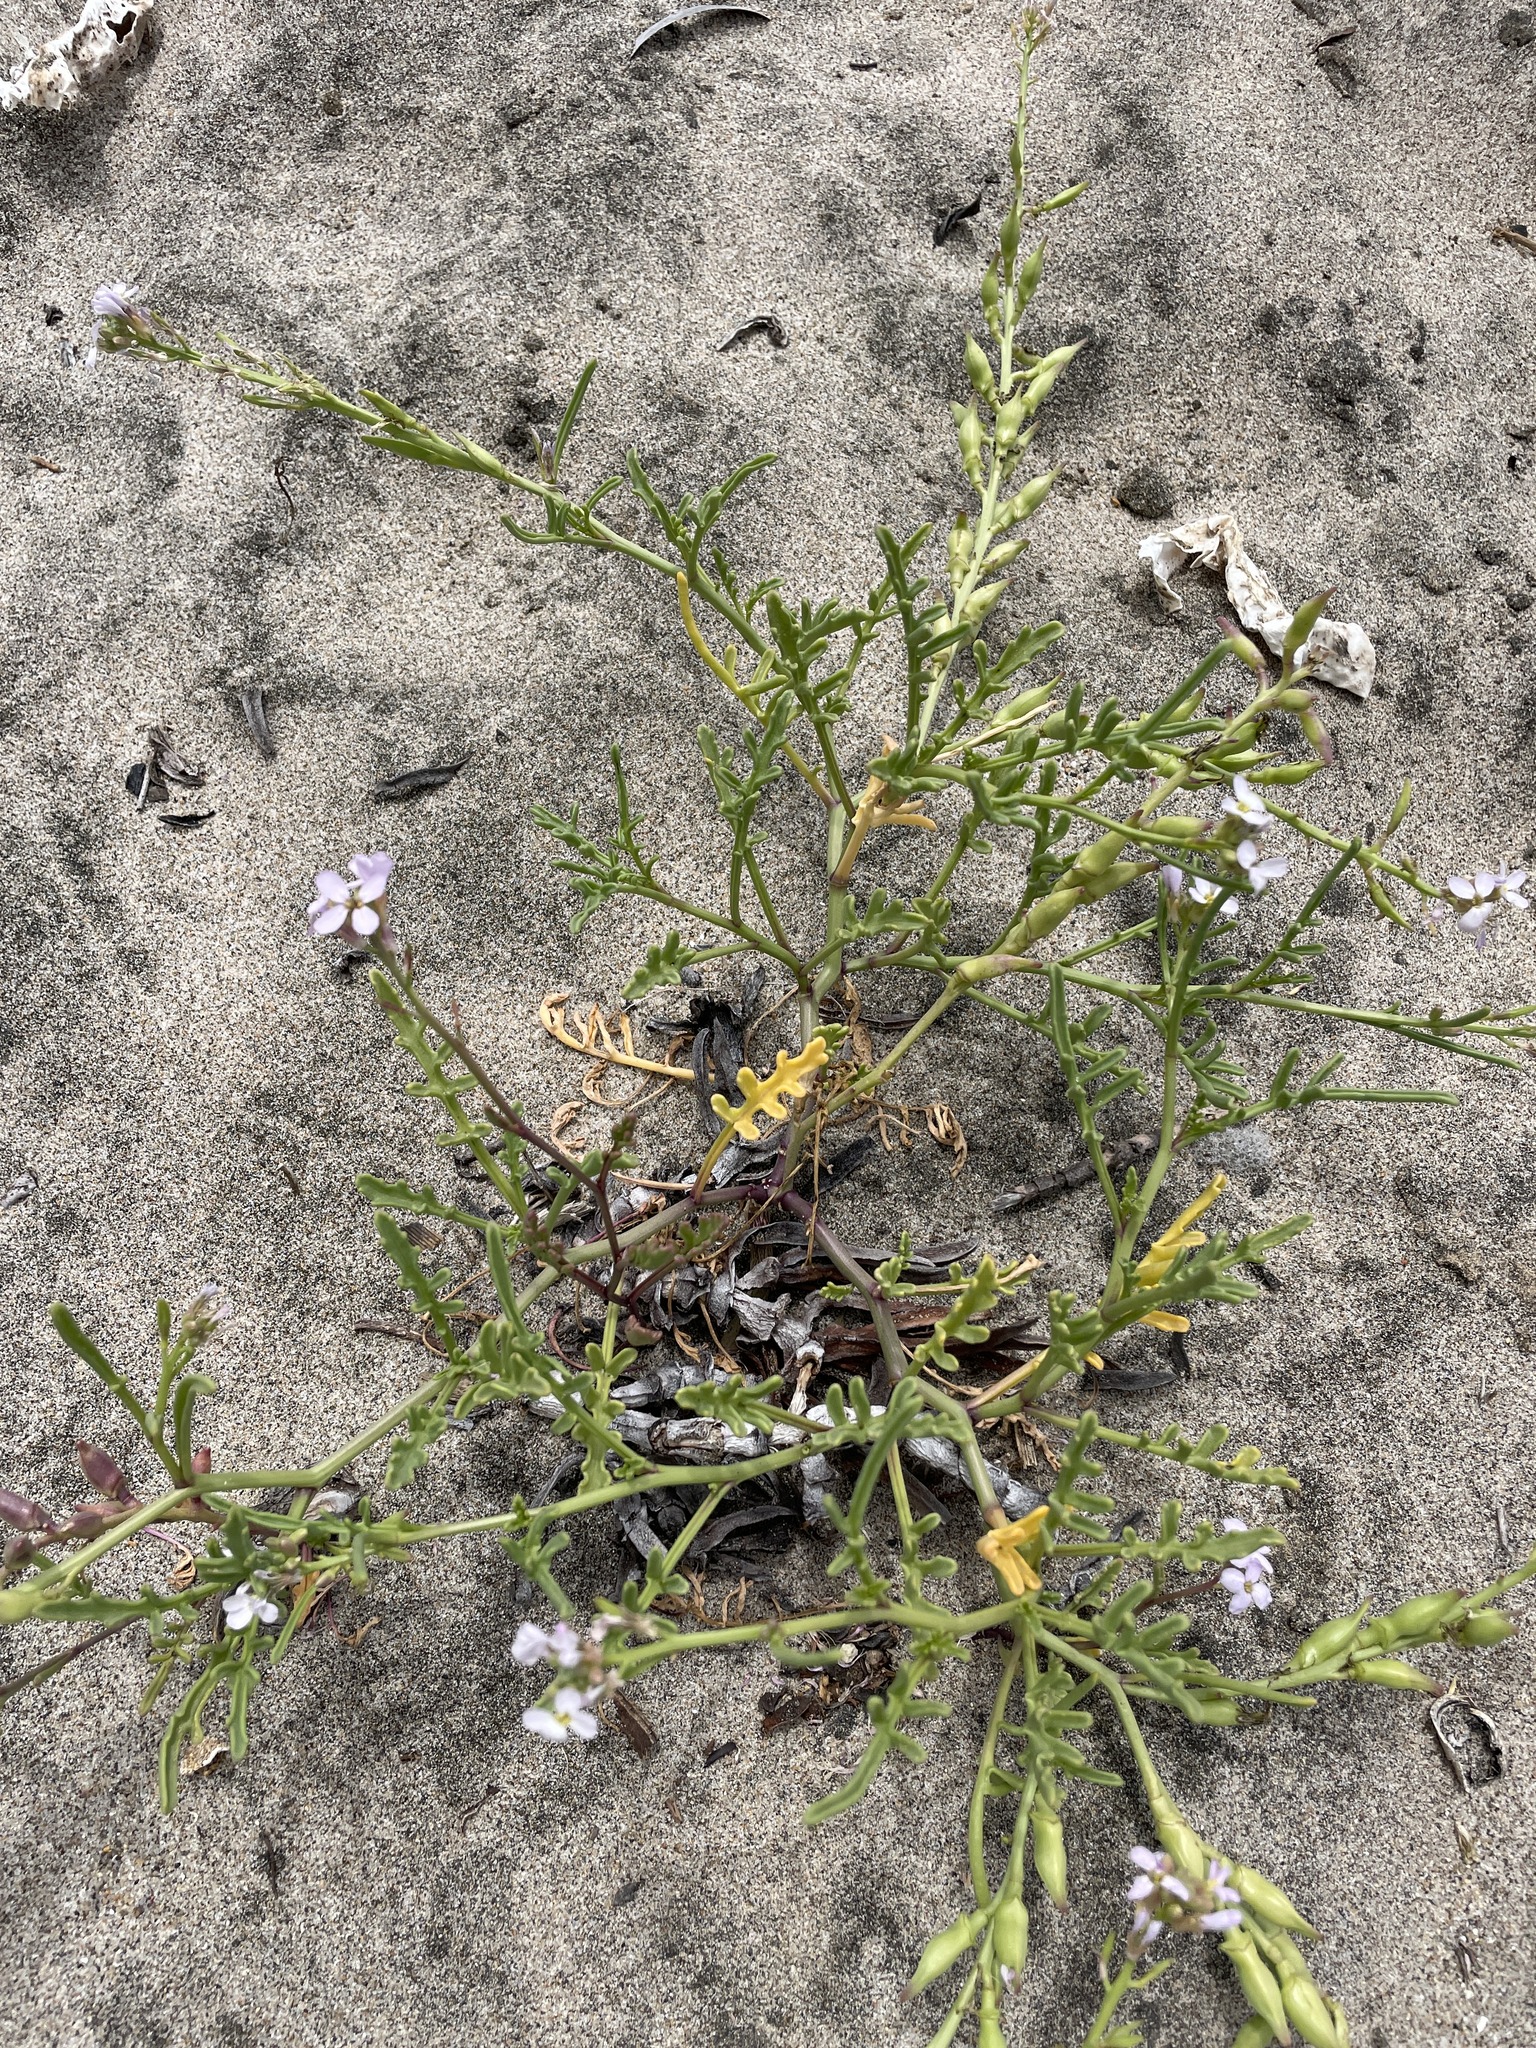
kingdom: Plantae
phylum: Tracheophyta
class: Magnoliopsida
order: Brassicales
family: Brassicaceae
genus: Cakile
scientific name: Cakile maritima
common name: Sea rocket
